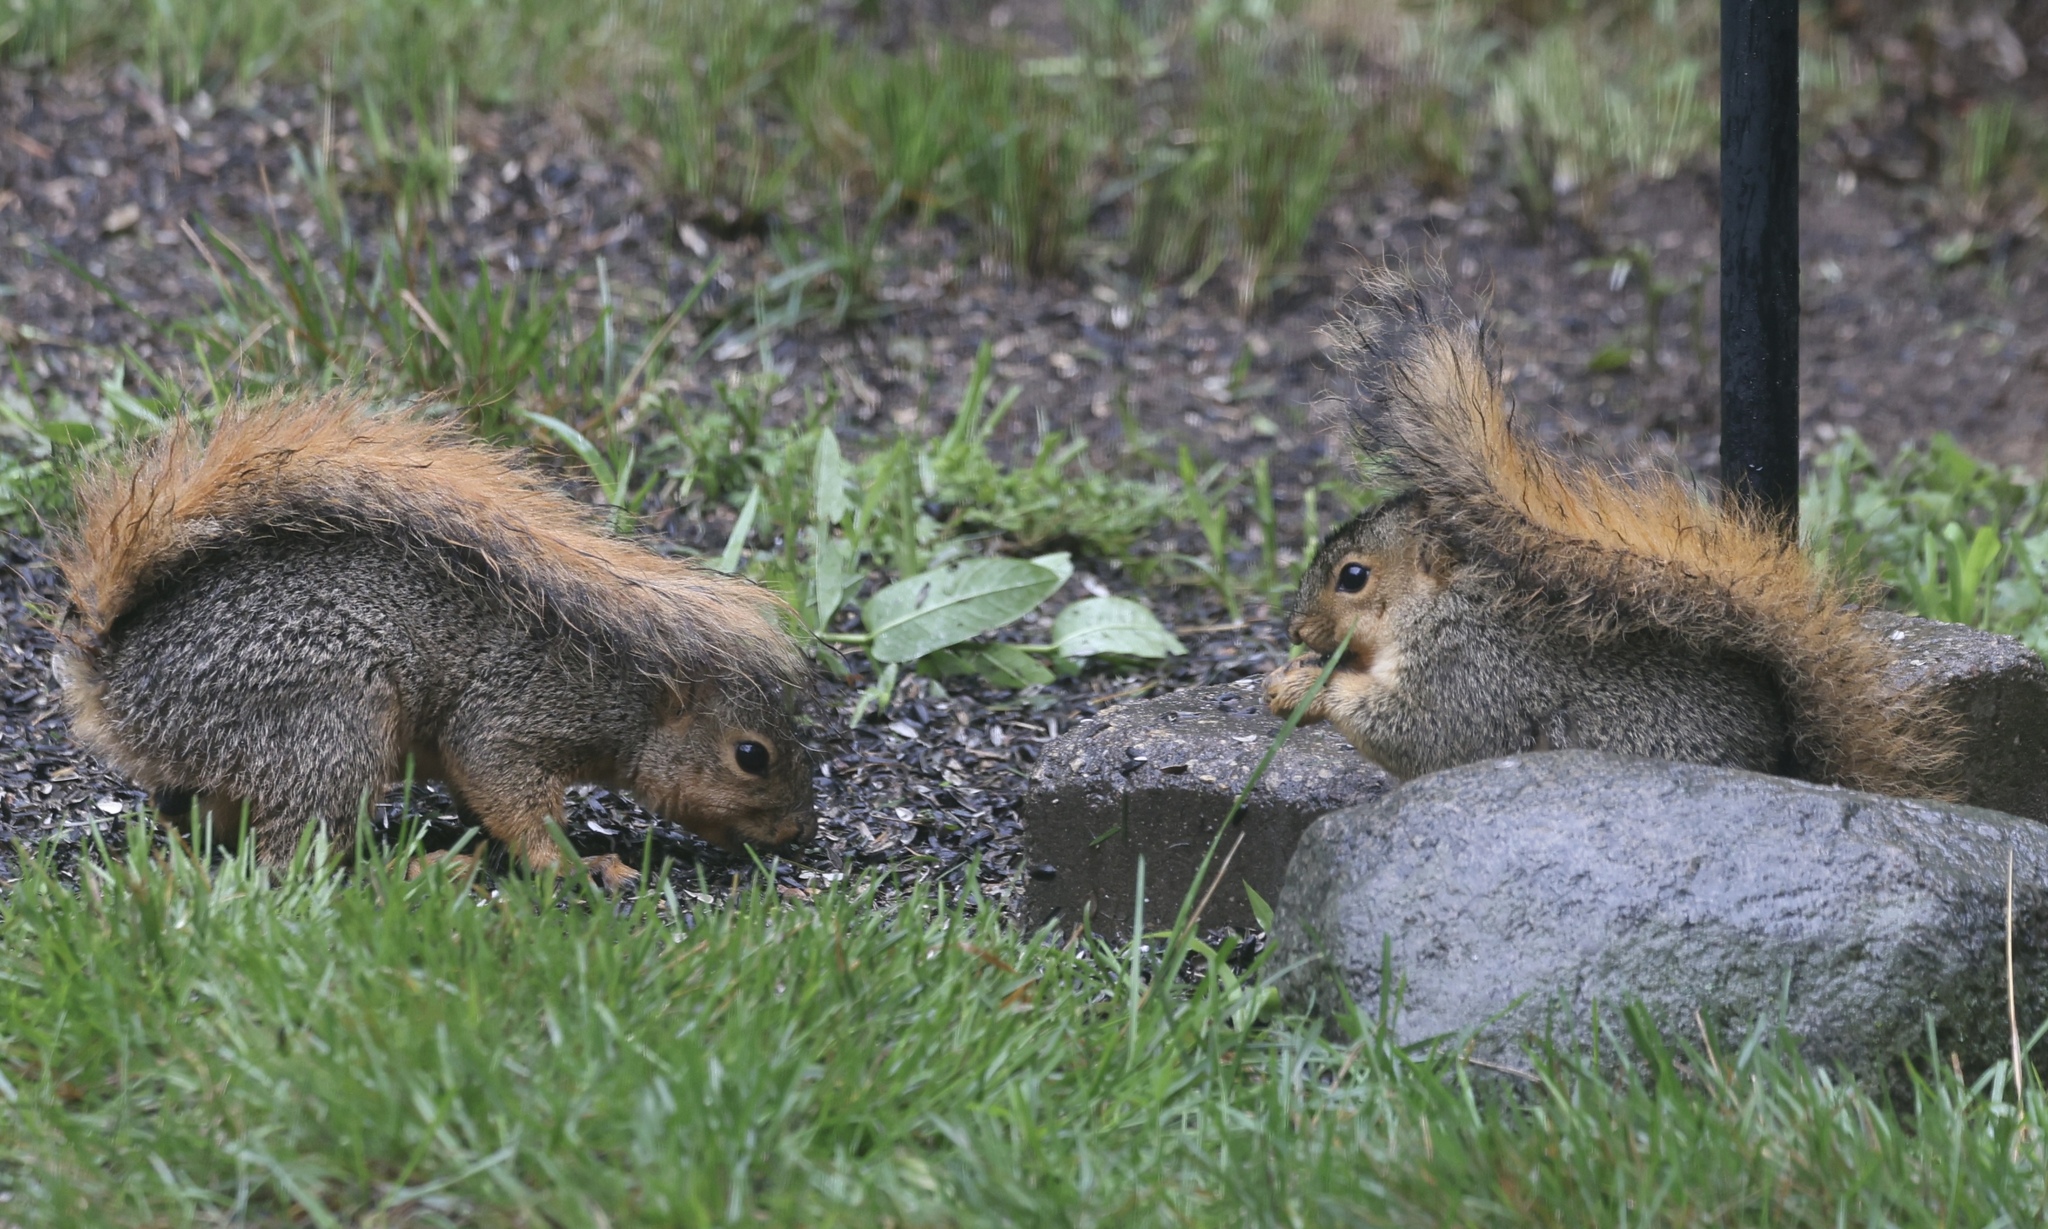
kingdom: Animalia
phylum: Chordata
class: Mammalia
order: Rodentia
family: Sciuridae
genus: Sciurus
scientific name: Sciurus niger
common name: Fox squirrel
